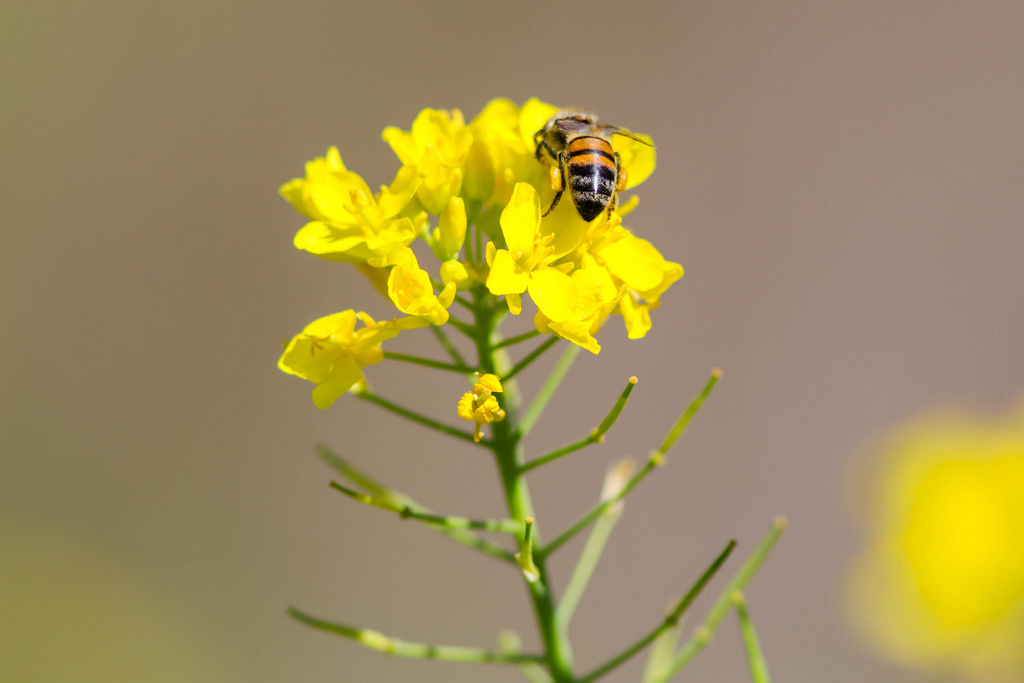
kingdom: Animalia
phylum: Arthropoda
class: Insecta
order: Hymenoptera
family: Apidae
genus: Apis
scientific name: Apis mellifera
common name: Honey bee
